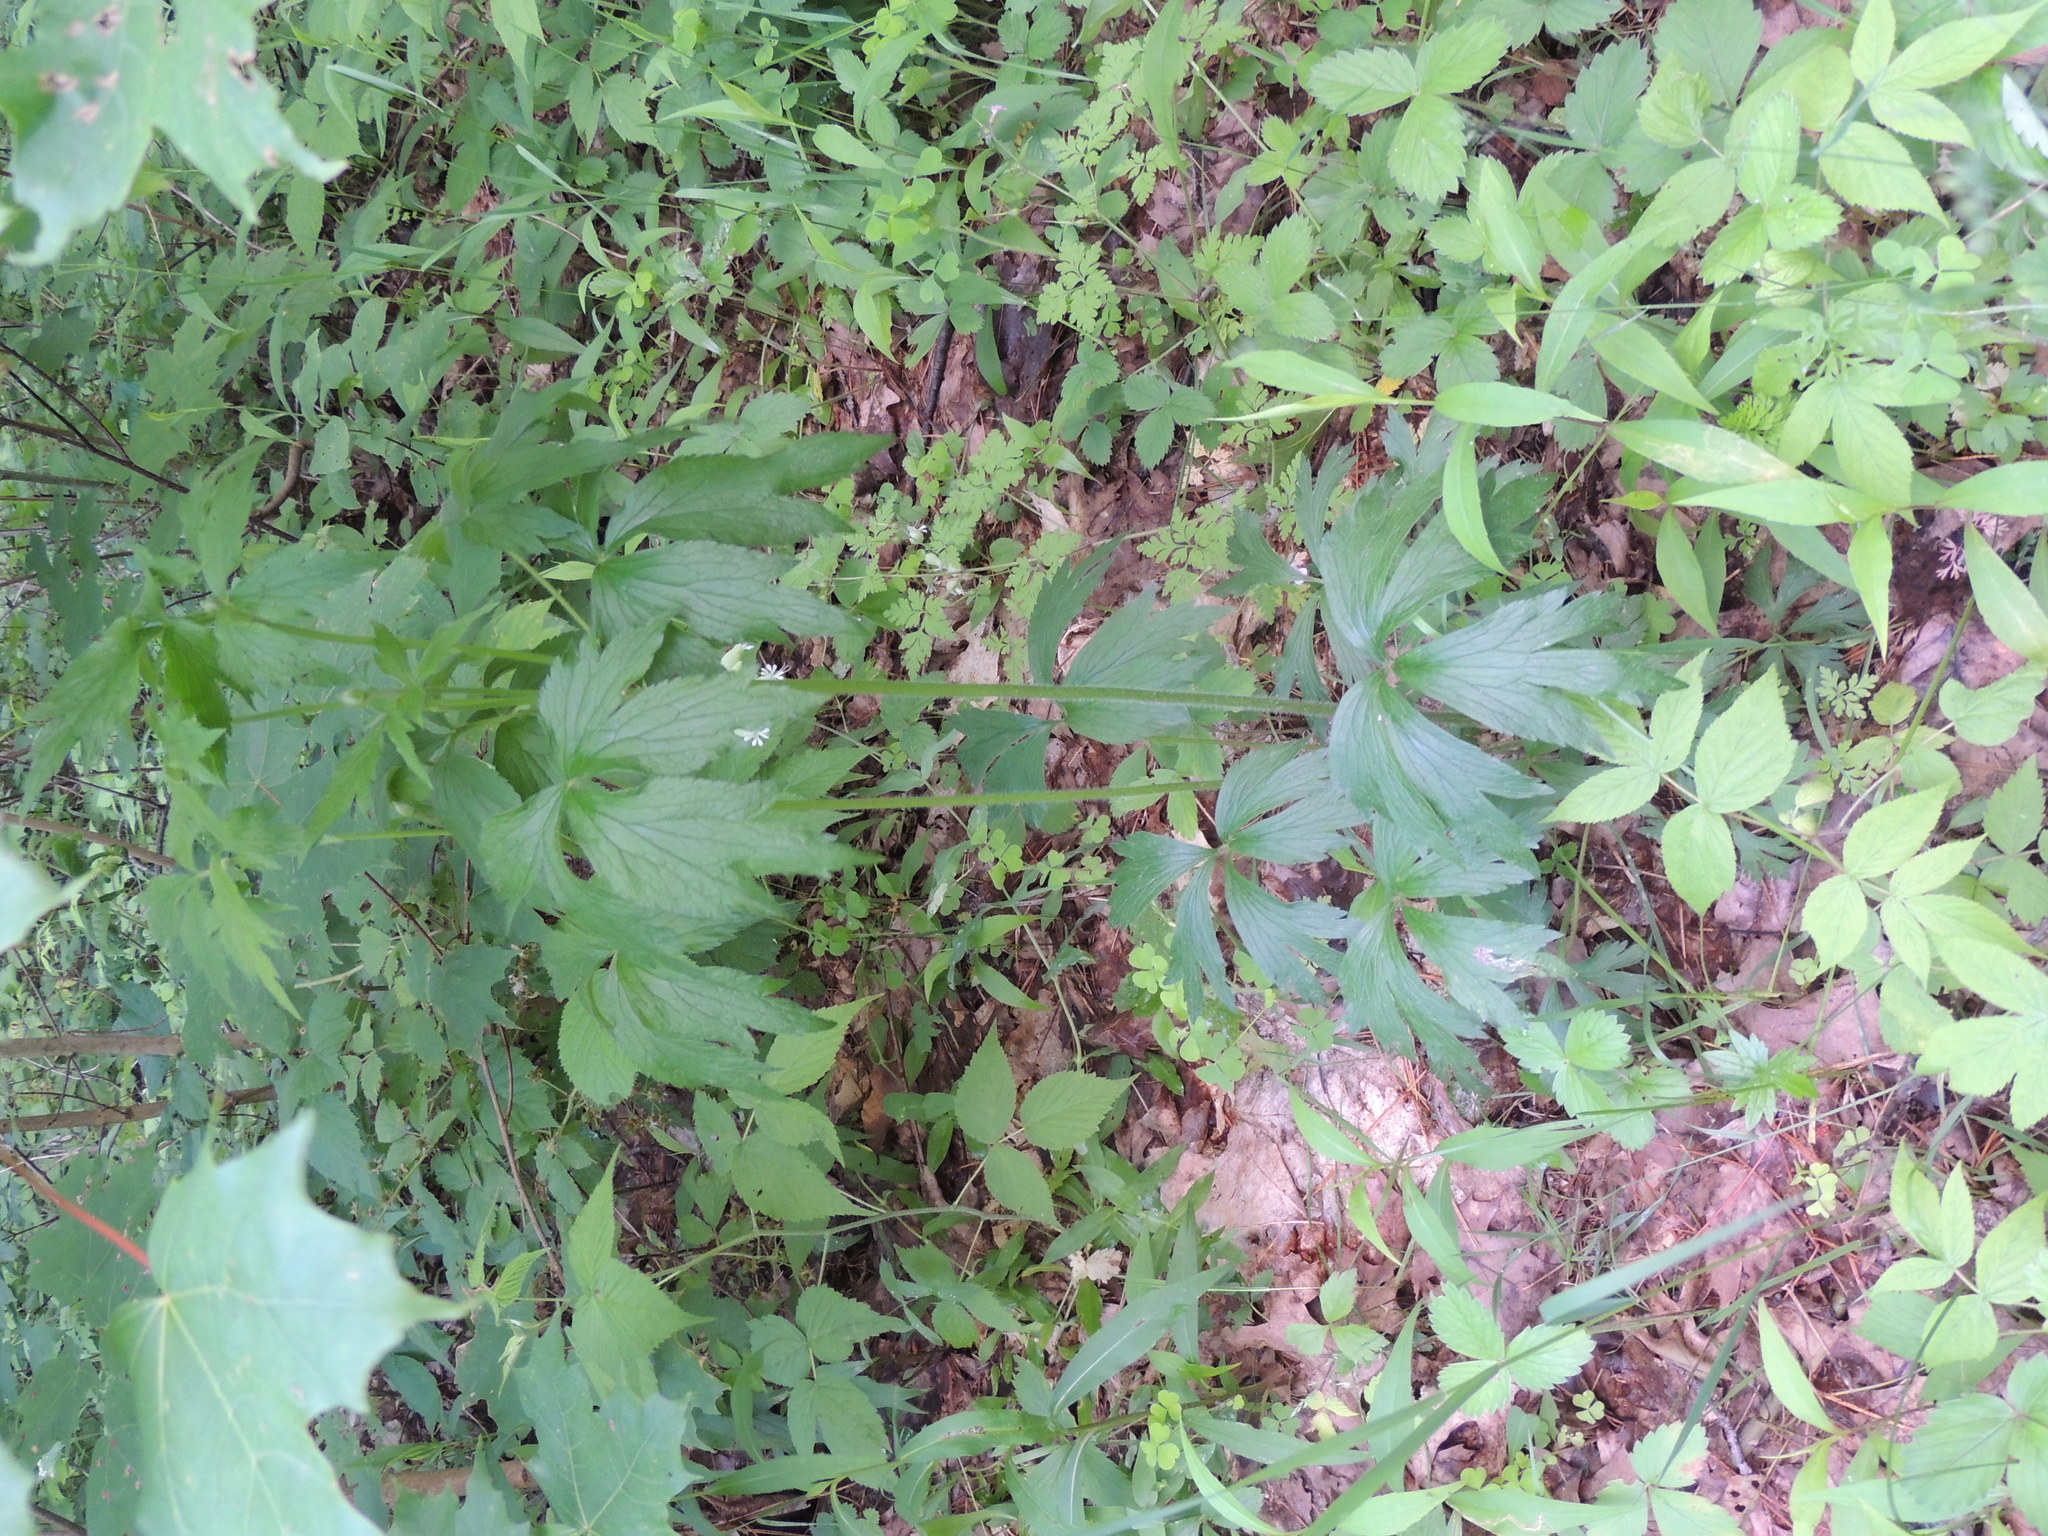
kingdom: Plantae
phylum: Tracheophyta
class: Magnoliopsida
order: Ranunculales
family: Ranunculaceae
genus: Anemone
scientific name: Anemone virginiana
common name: Tall anemone
